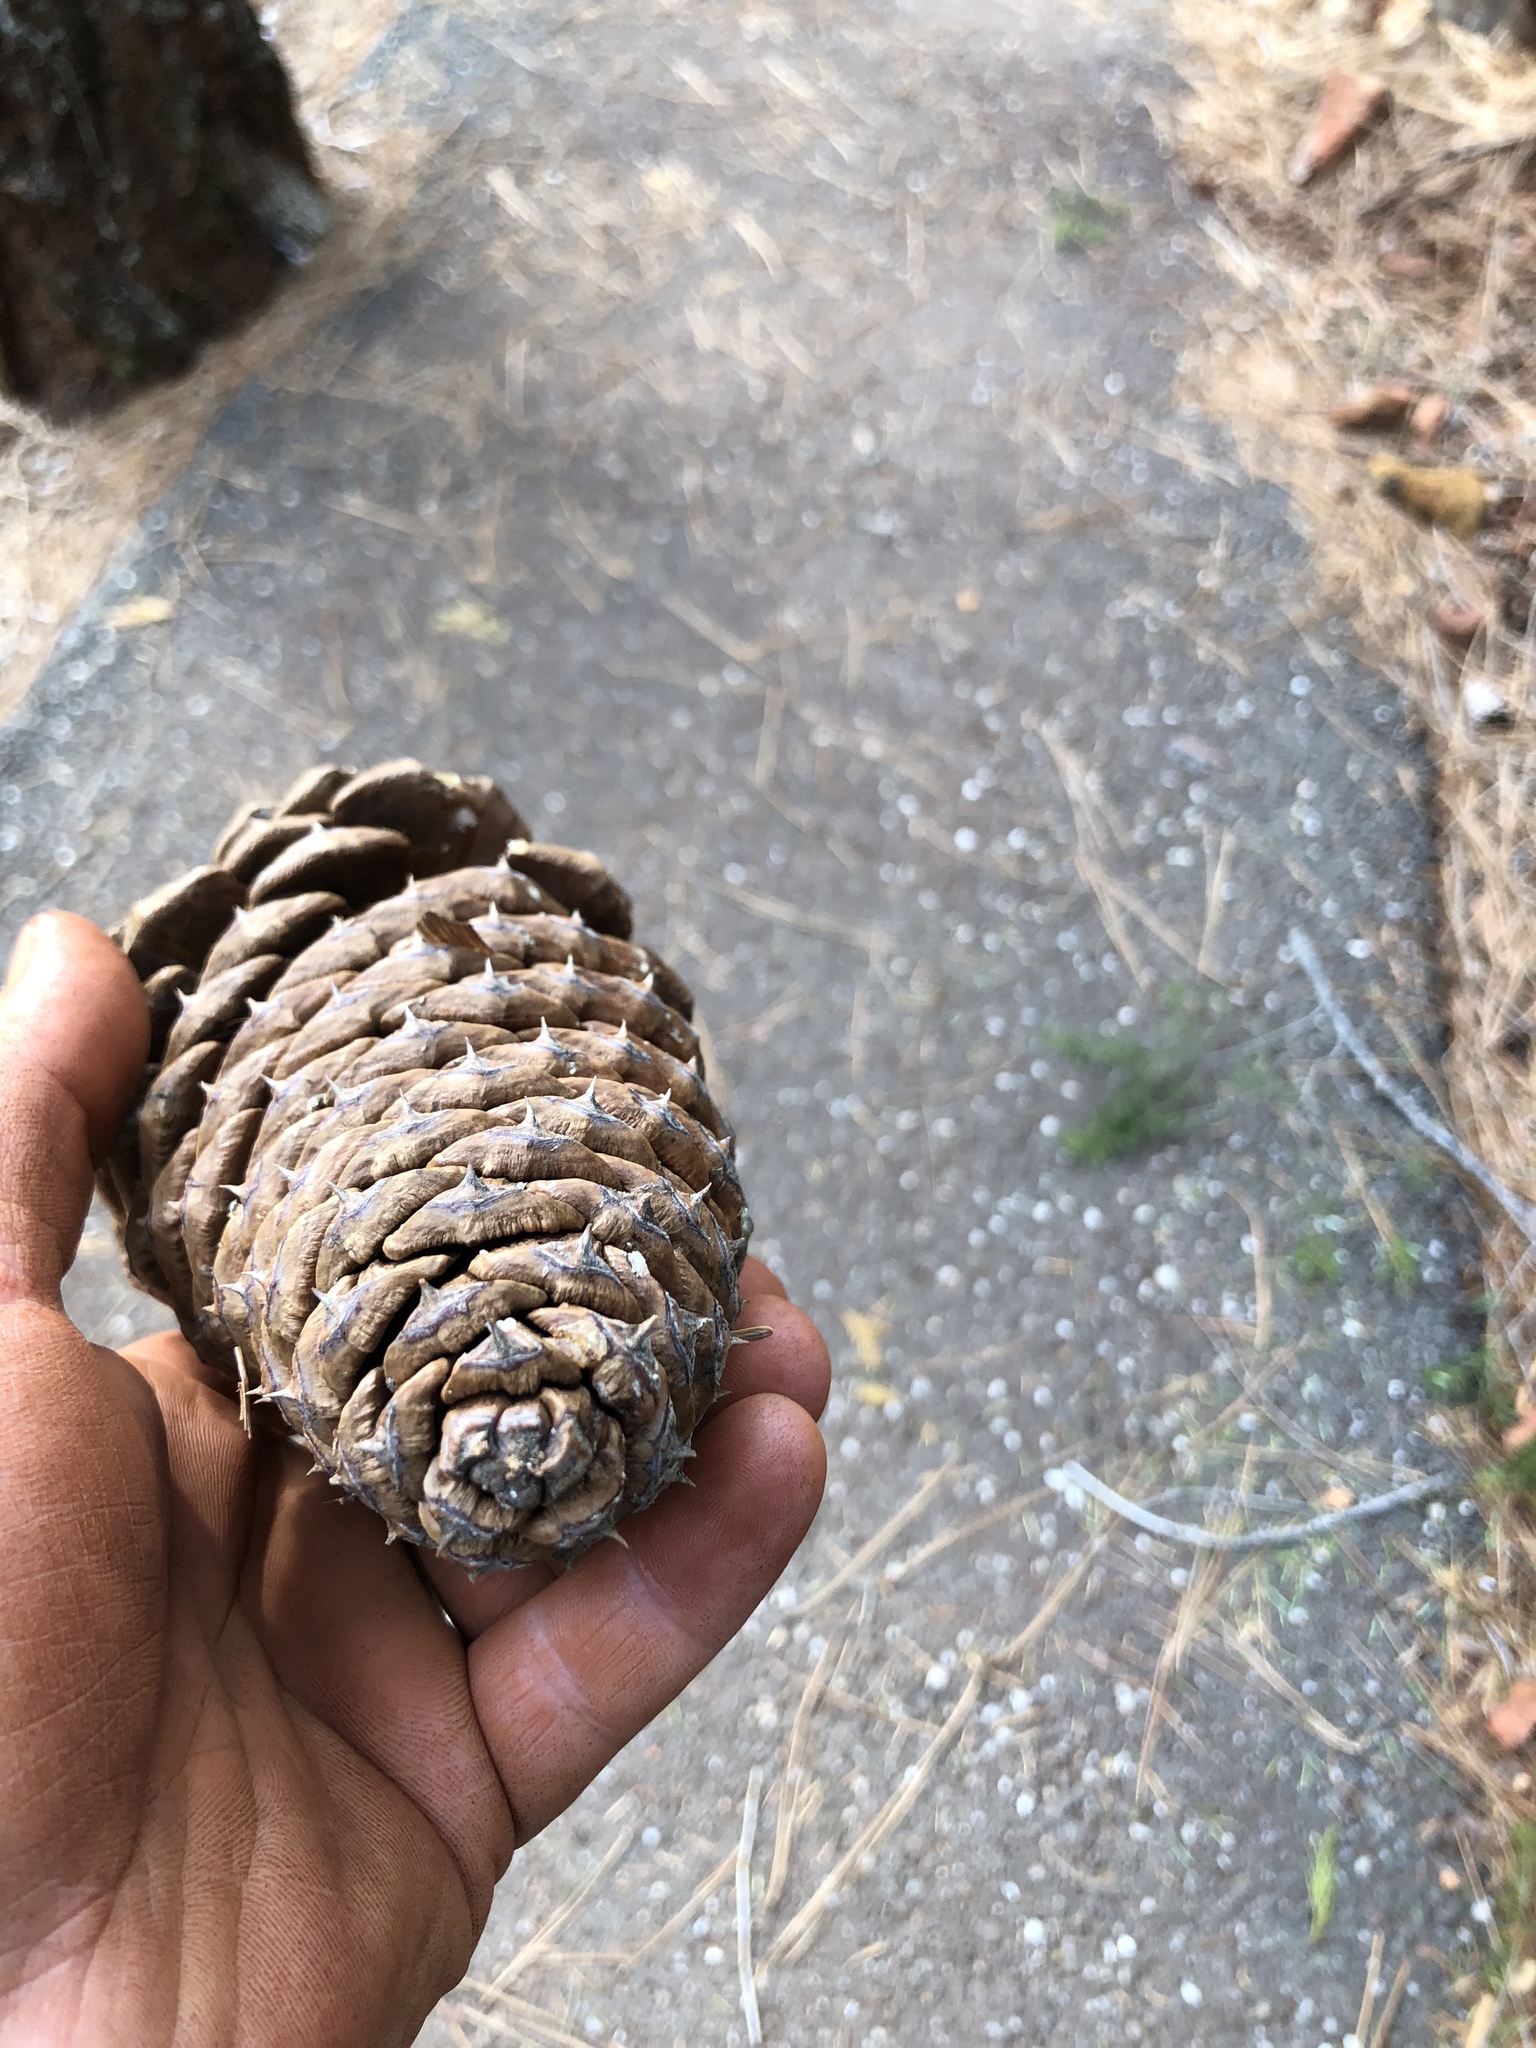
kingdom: Plantae
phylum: Tracheophyta
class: Pinopsida
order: Pinales
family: Pinaceae
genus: Pinus
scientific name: Pinus jeffreyi
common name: Jeffrey pine
